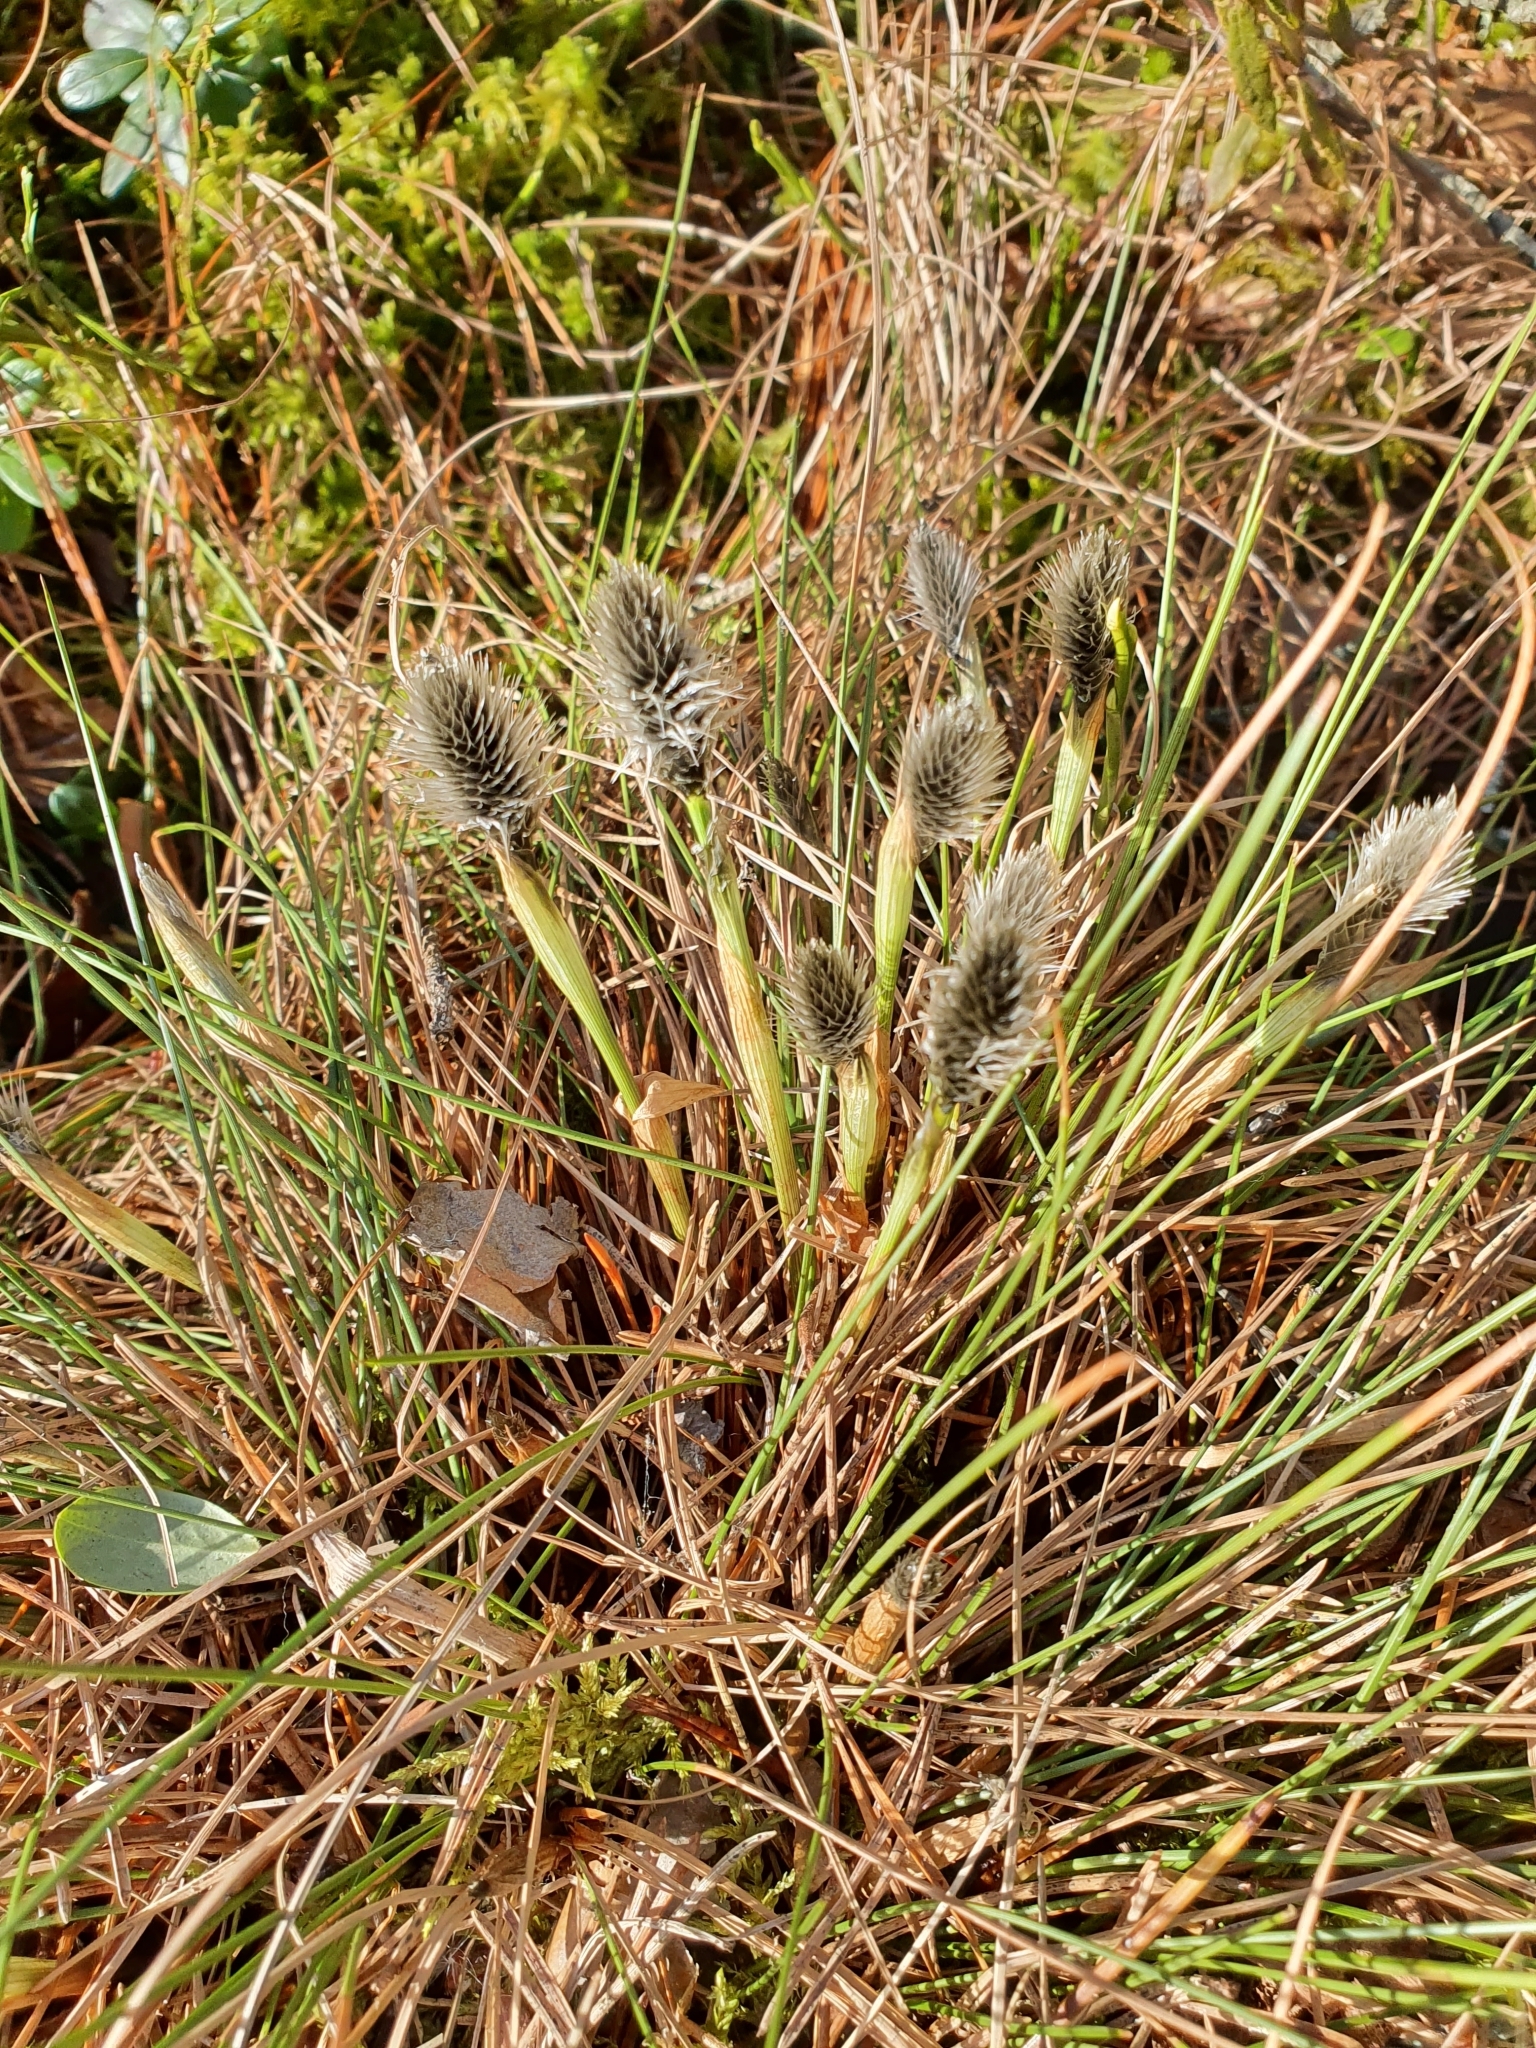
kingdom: Plantae
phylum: Tracheophyta
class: Liliopsida
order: Poales
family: Cyperaceae
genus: Eriophorum
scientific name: Eriophorum vaginatum
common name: Hare's-tail cottongrass
